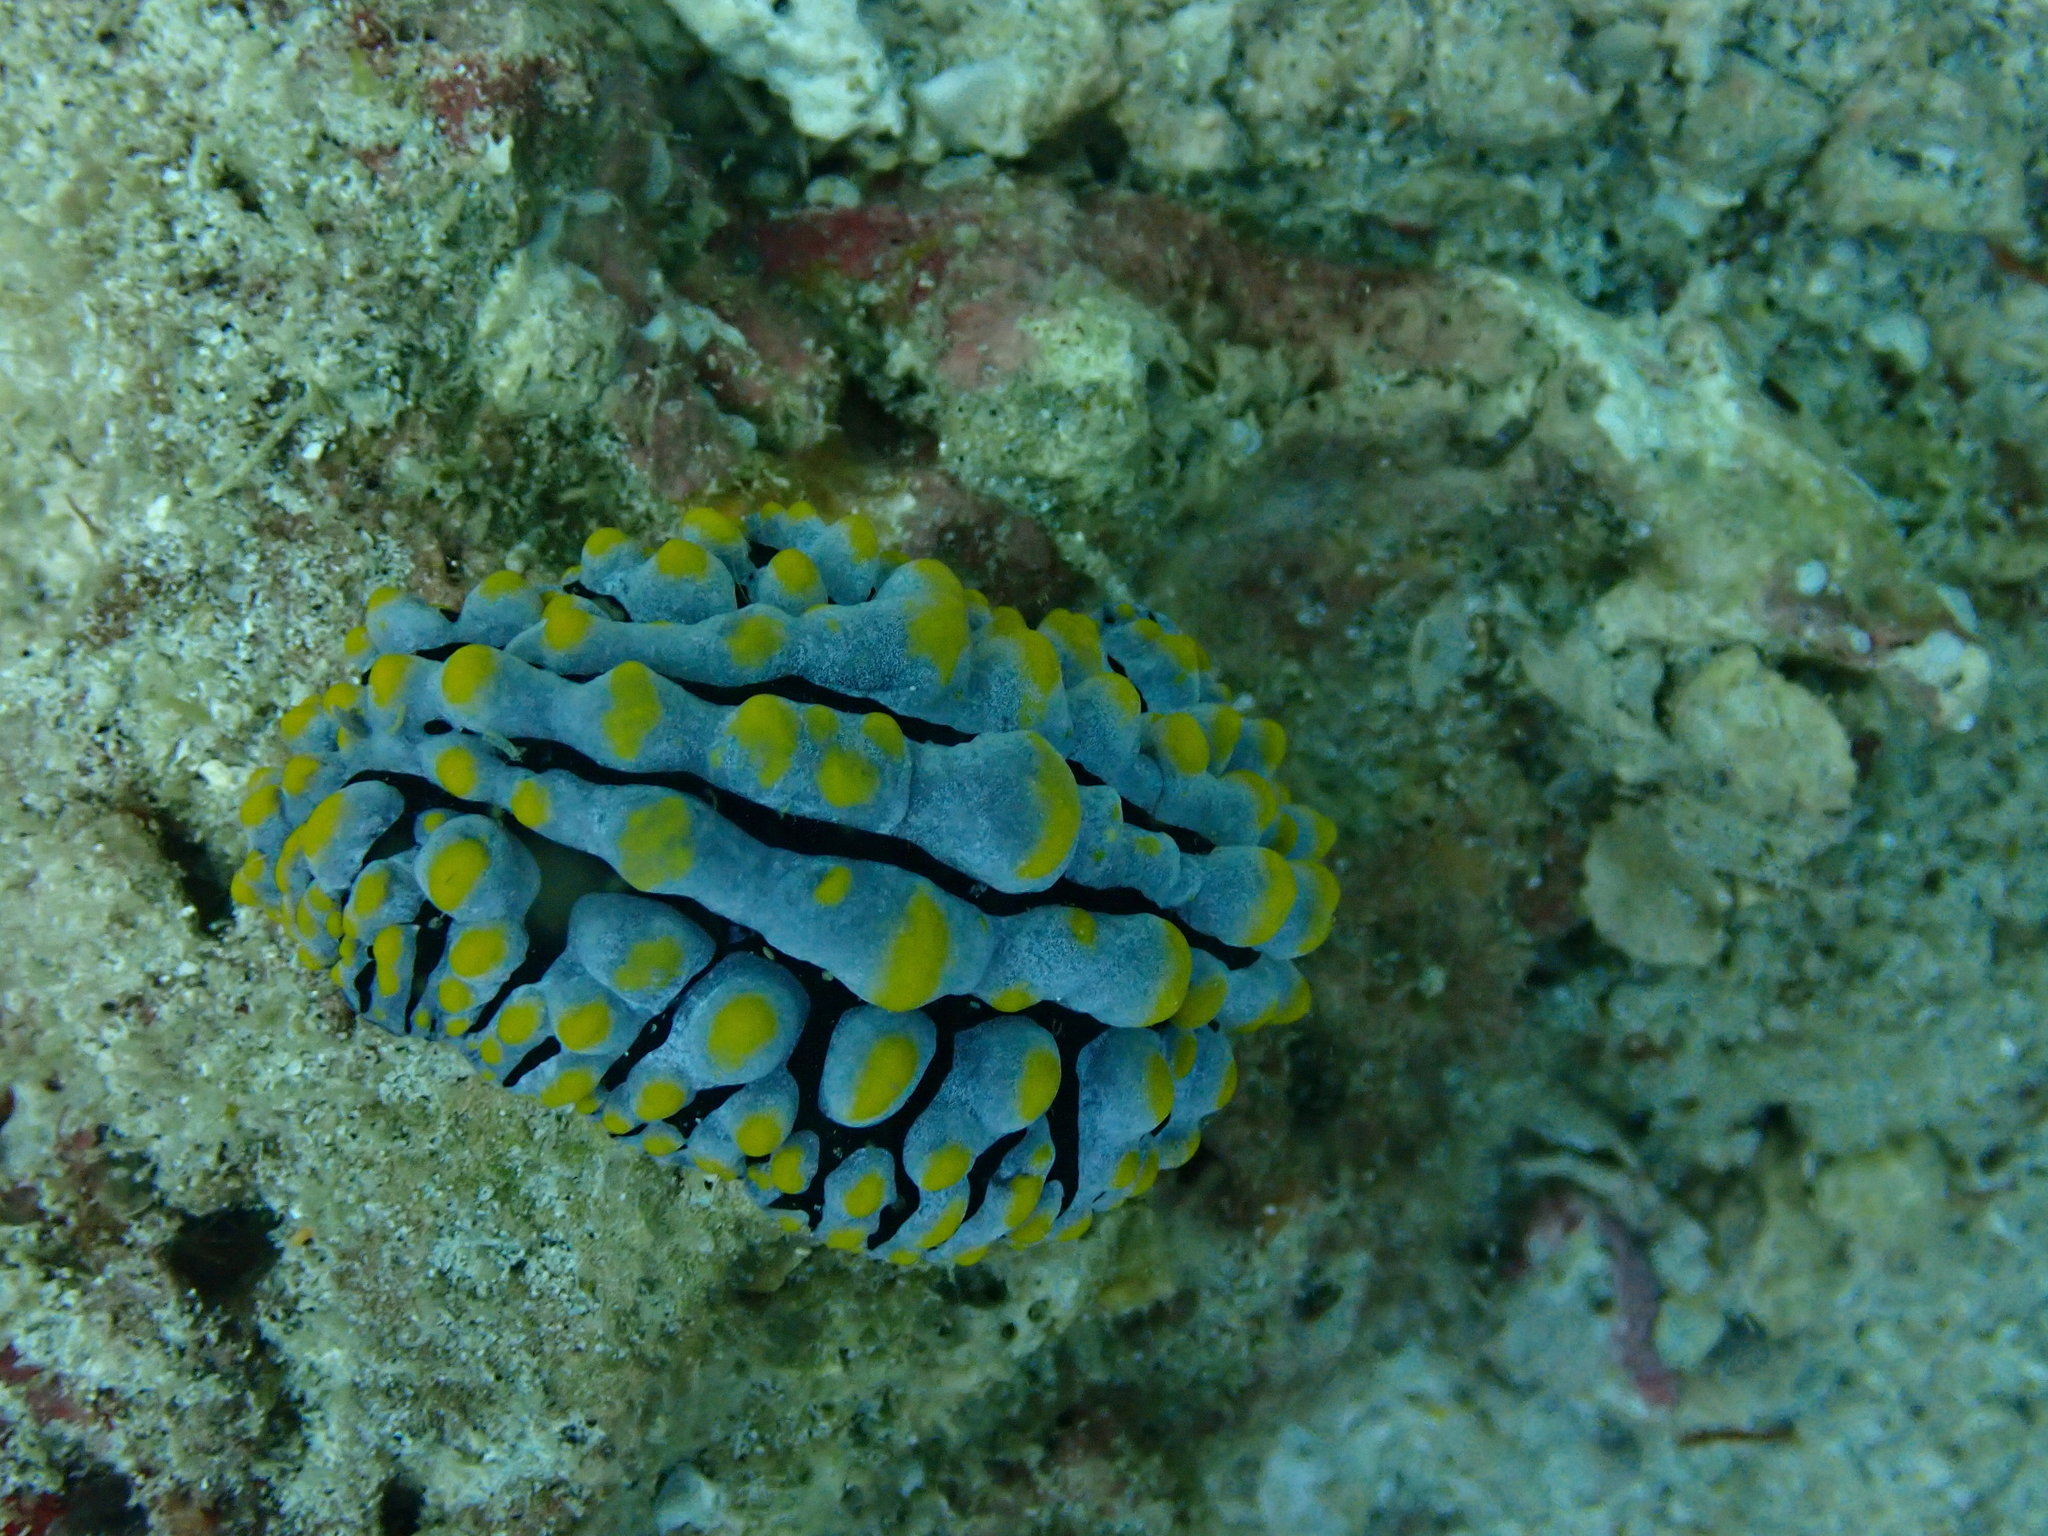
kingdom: Animalia
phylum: Mollusca
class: Gastropoda
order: Nudibranchia
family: Phyllidiidae
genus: Phyllidia
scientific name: Phyllidia varicosa
